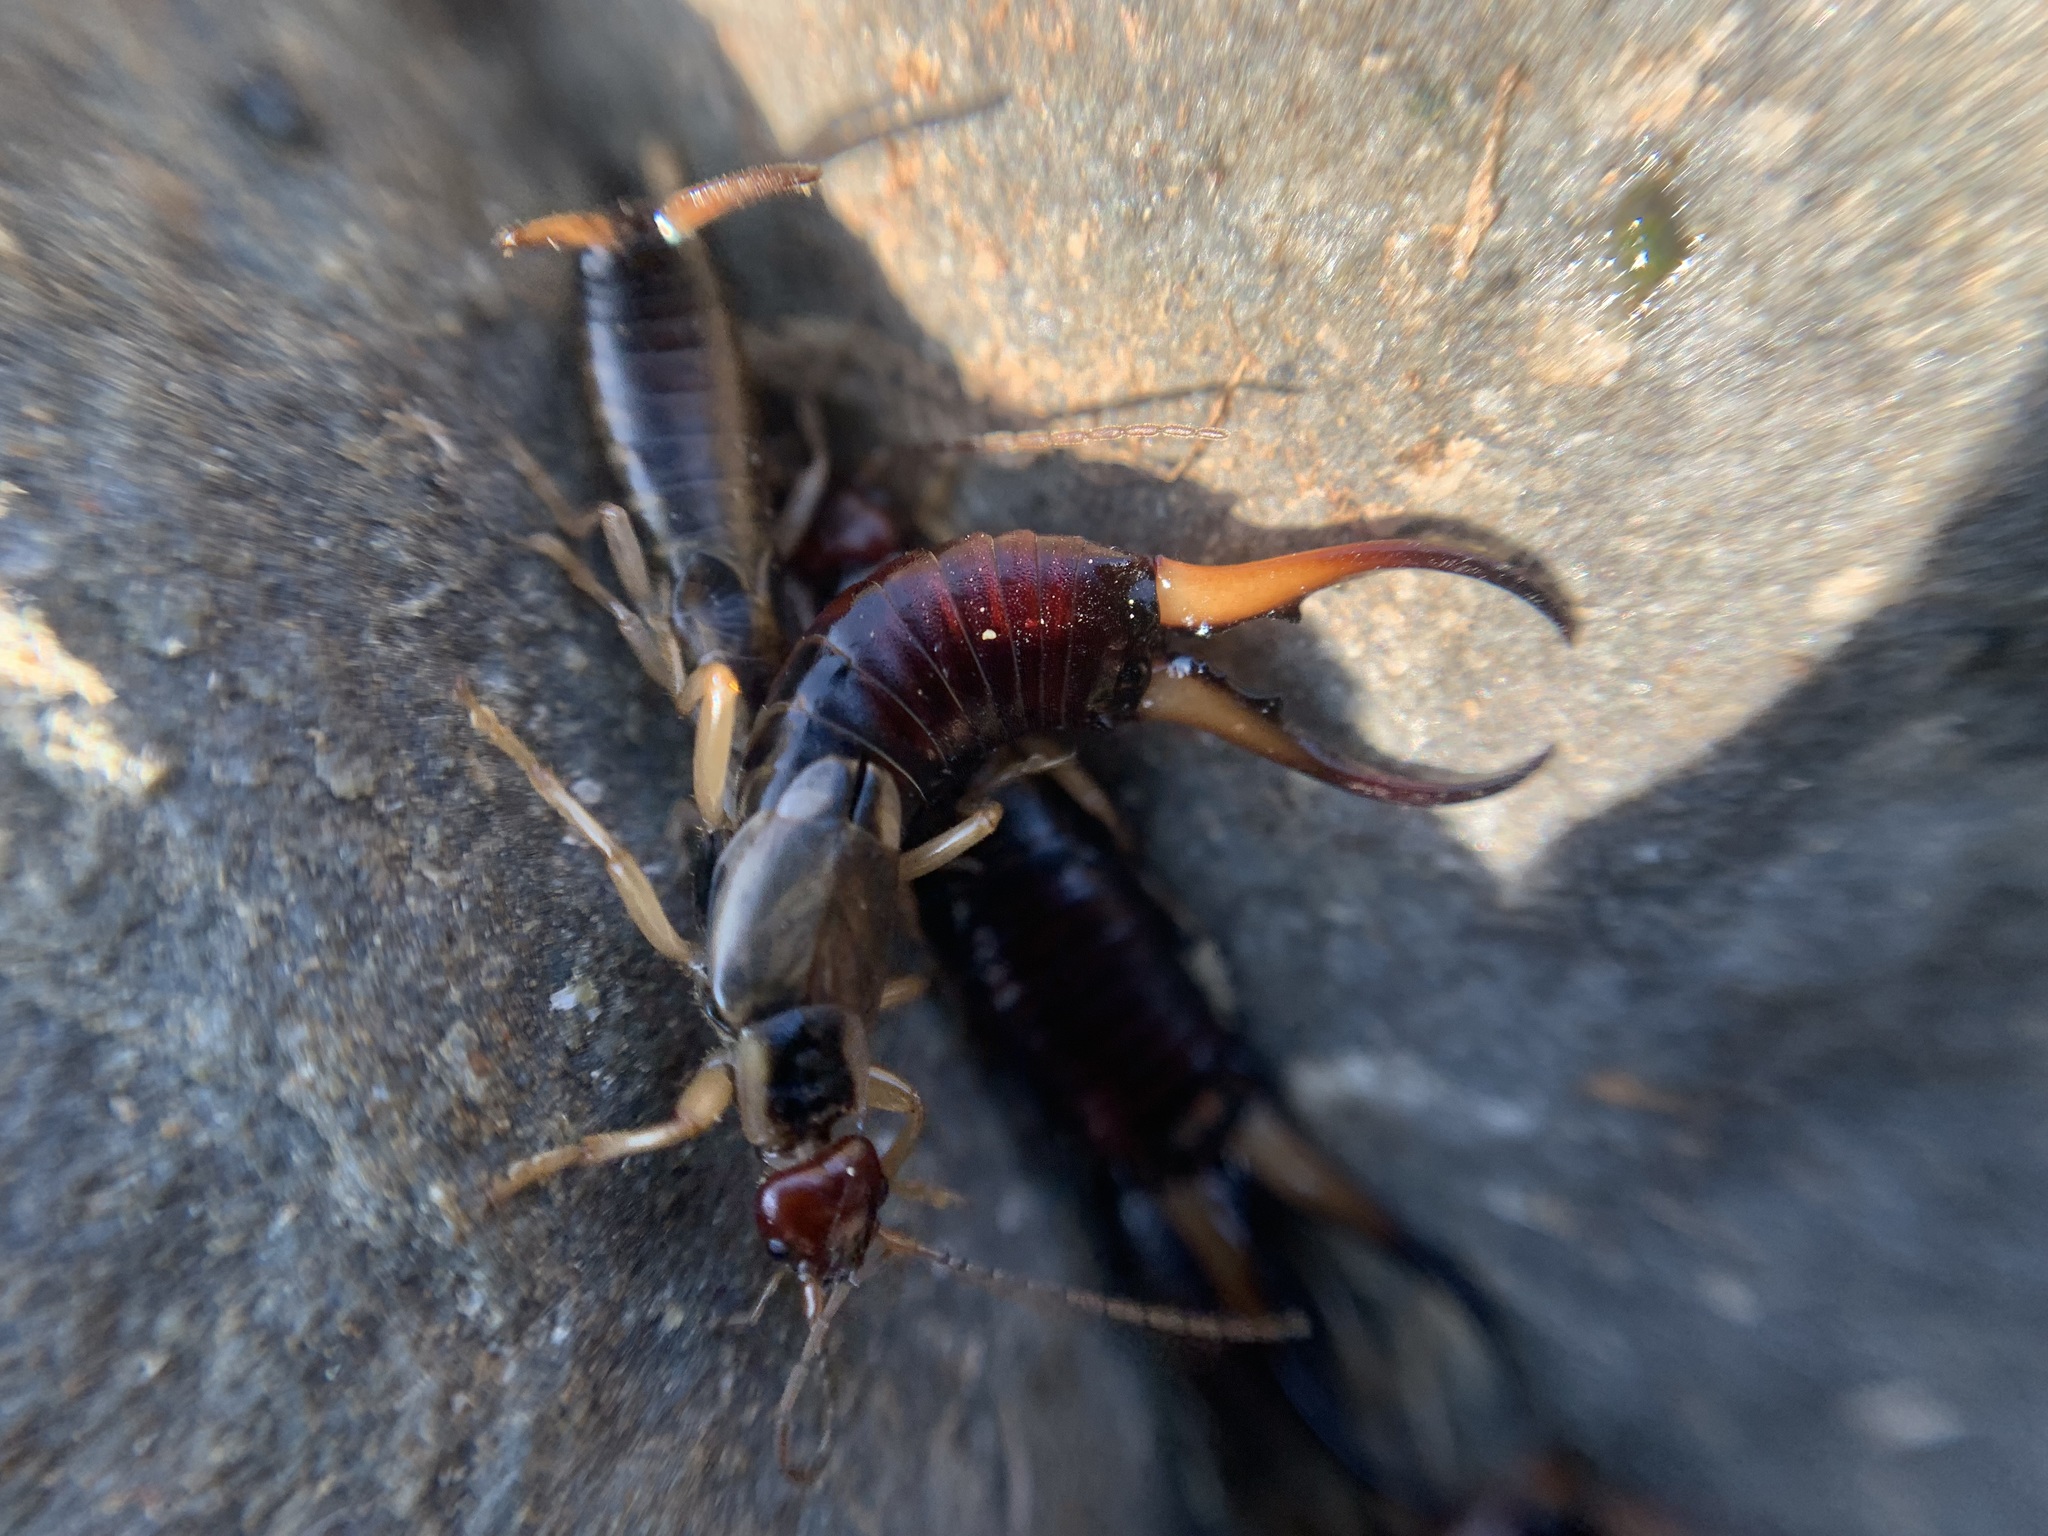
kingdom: Animalia
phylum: Arthropoda
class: Insecta
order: Dermaptera
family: Forficulidae
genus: Forficula
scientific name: Forficula
